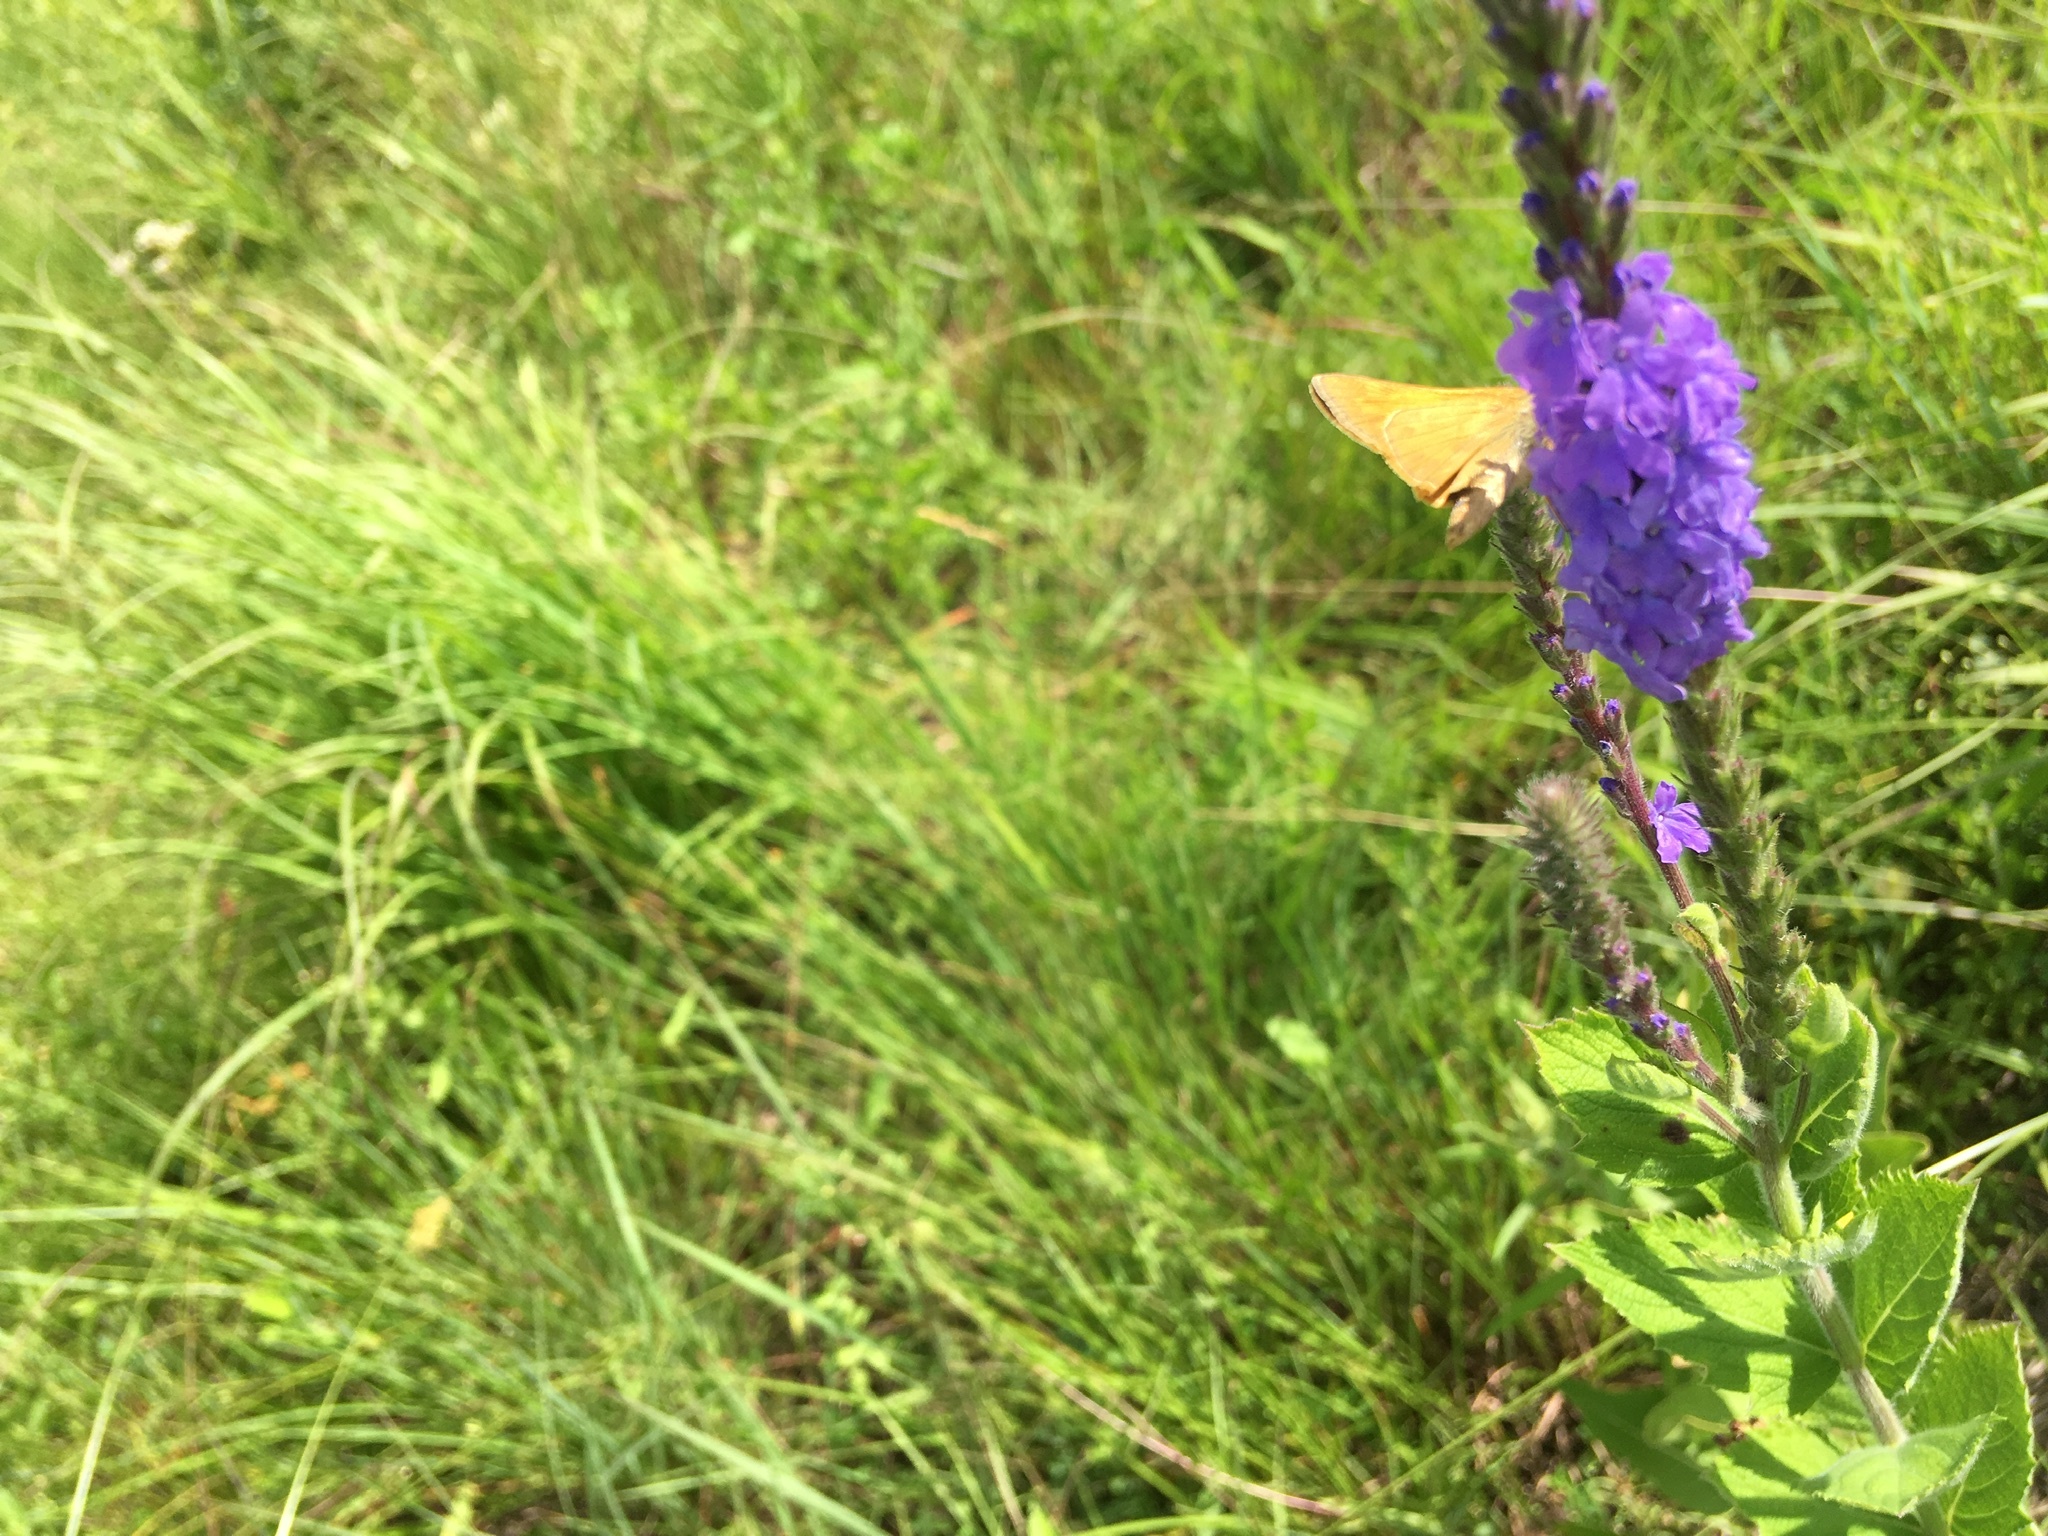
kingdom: Animalia
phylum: Arthropoda
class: Insecta
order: Lepidoptera
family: Hesperiidae
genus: Atalopedes
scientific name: Atalopedes
